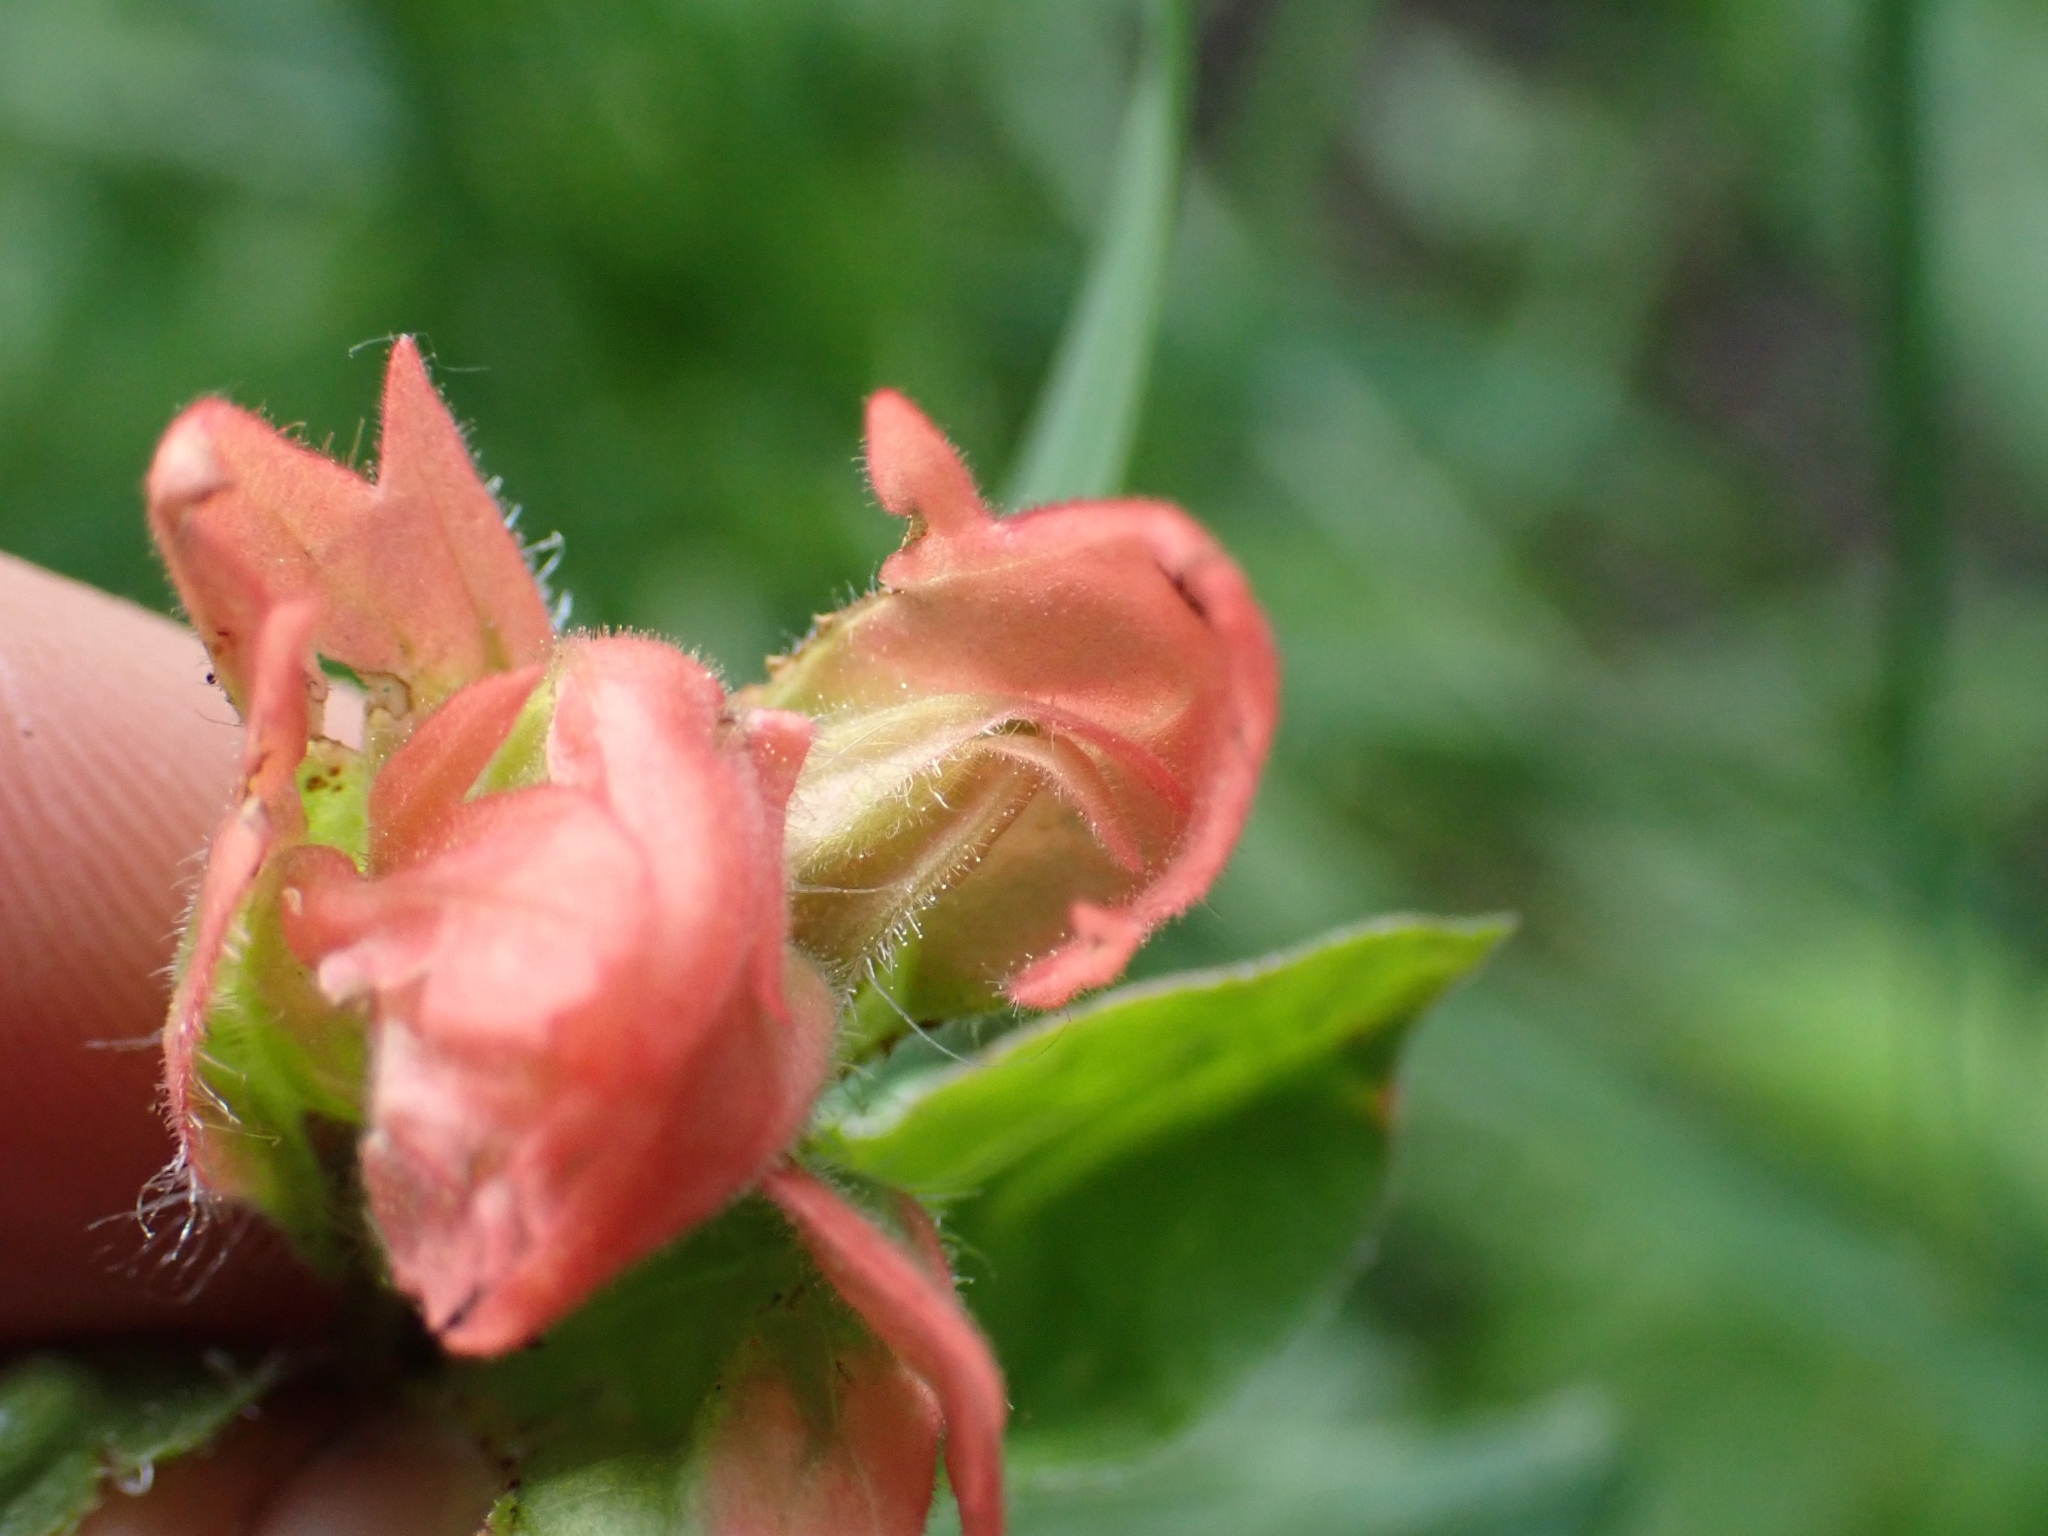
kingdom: Plantae
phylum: Tracheophyta
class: Magnoliopsida
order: Lamiales
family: Orobanchaceae
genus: Castilleja
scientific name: Castilleja miniata
